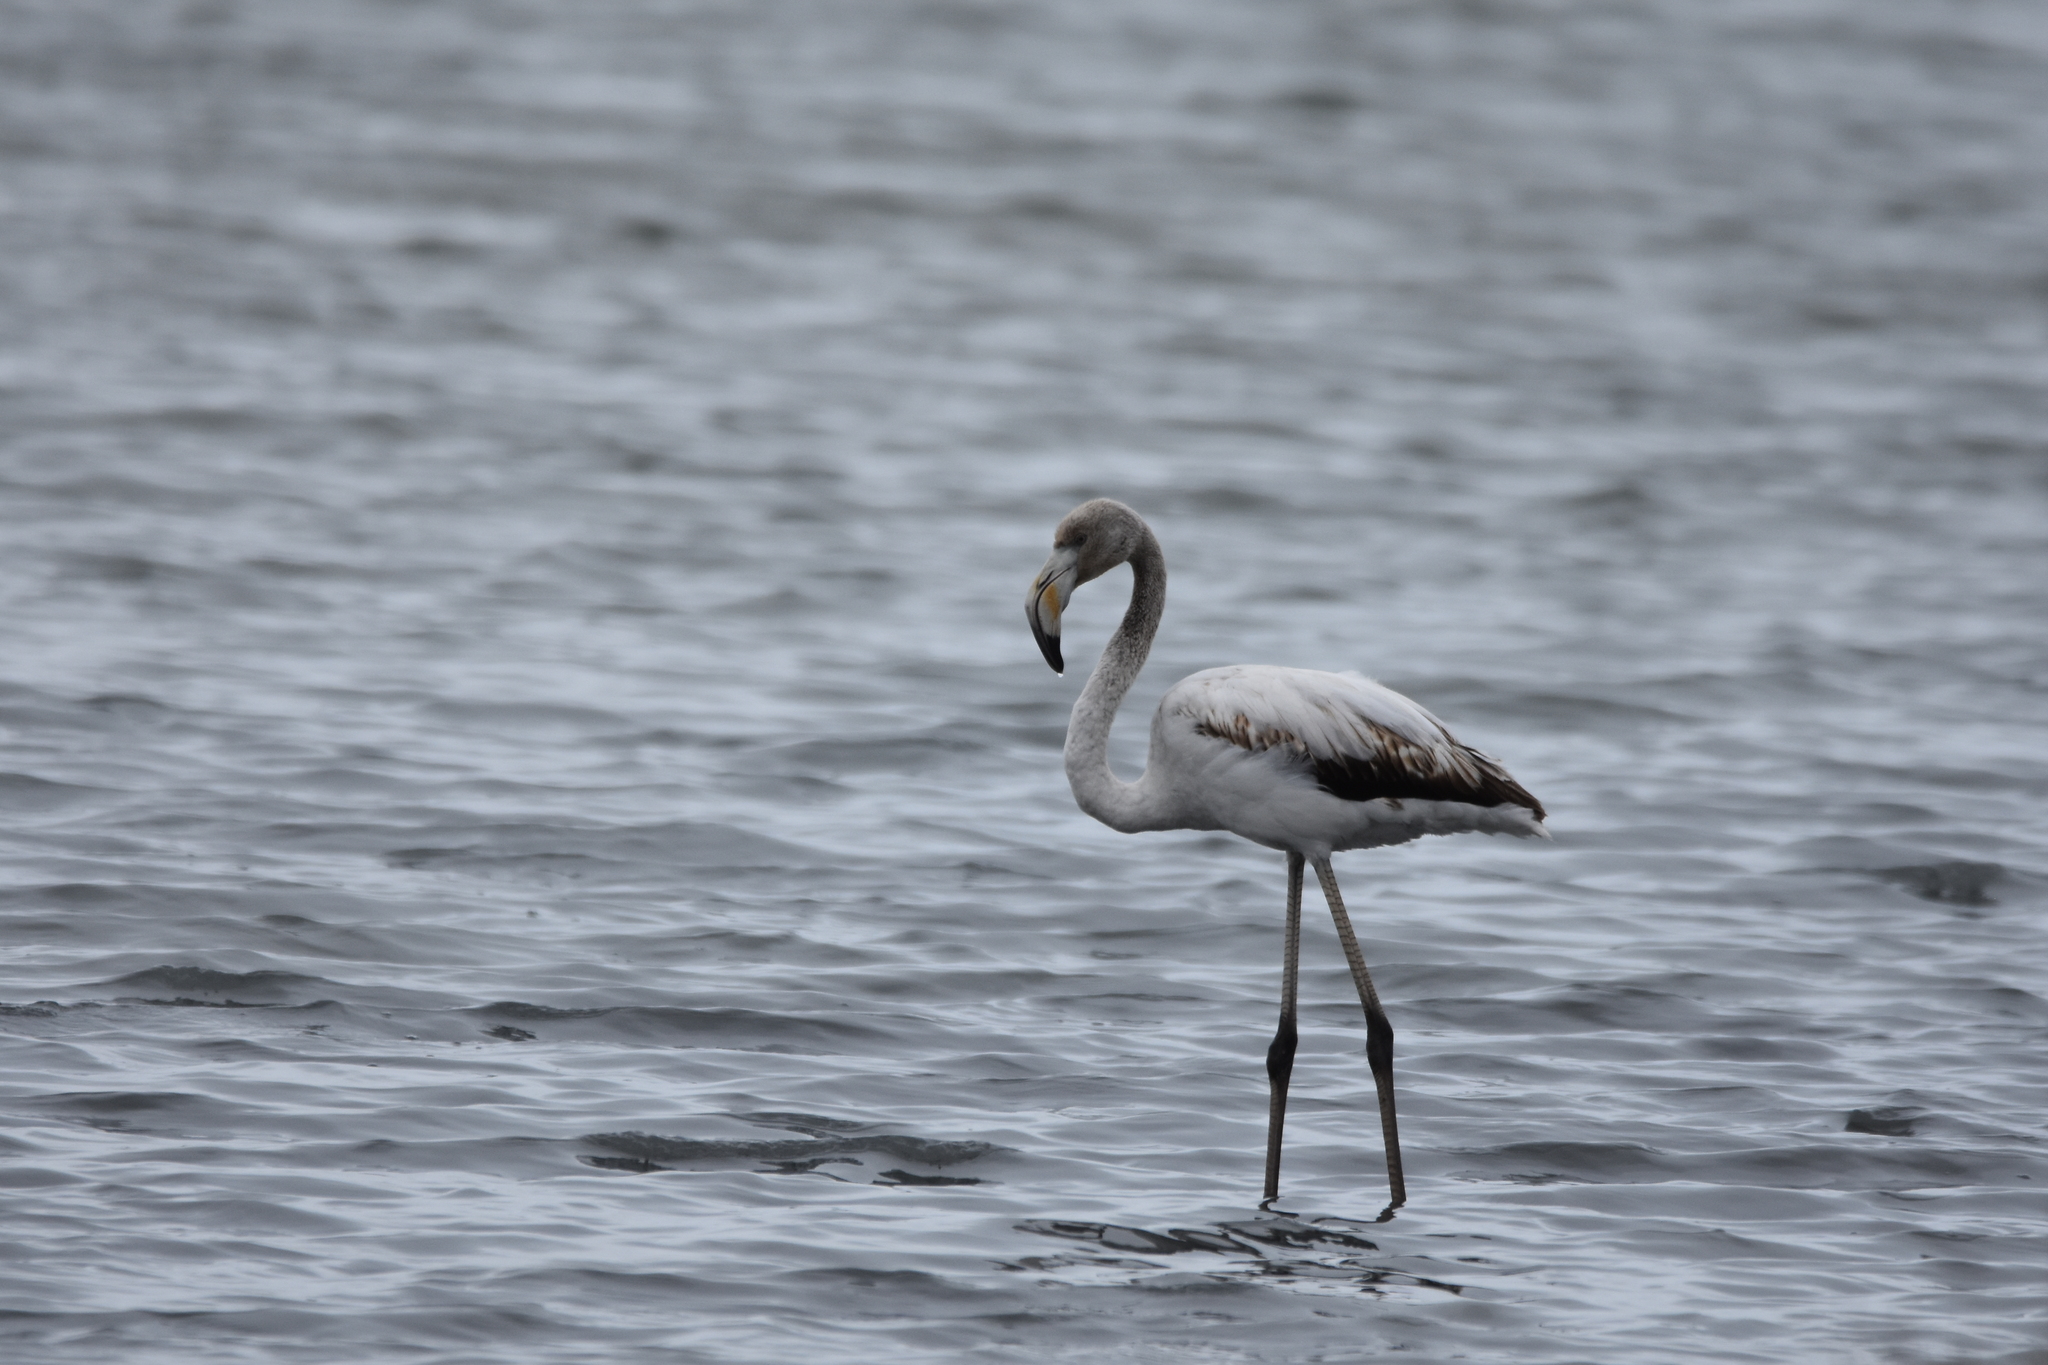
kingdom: Animalia
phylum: Chordata
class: Aves
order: Phoenicopteriformes
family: Phoenicopteridae
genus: Phoenicopterus
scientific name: Phoenicopterus roseus
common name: Greater flamingo
